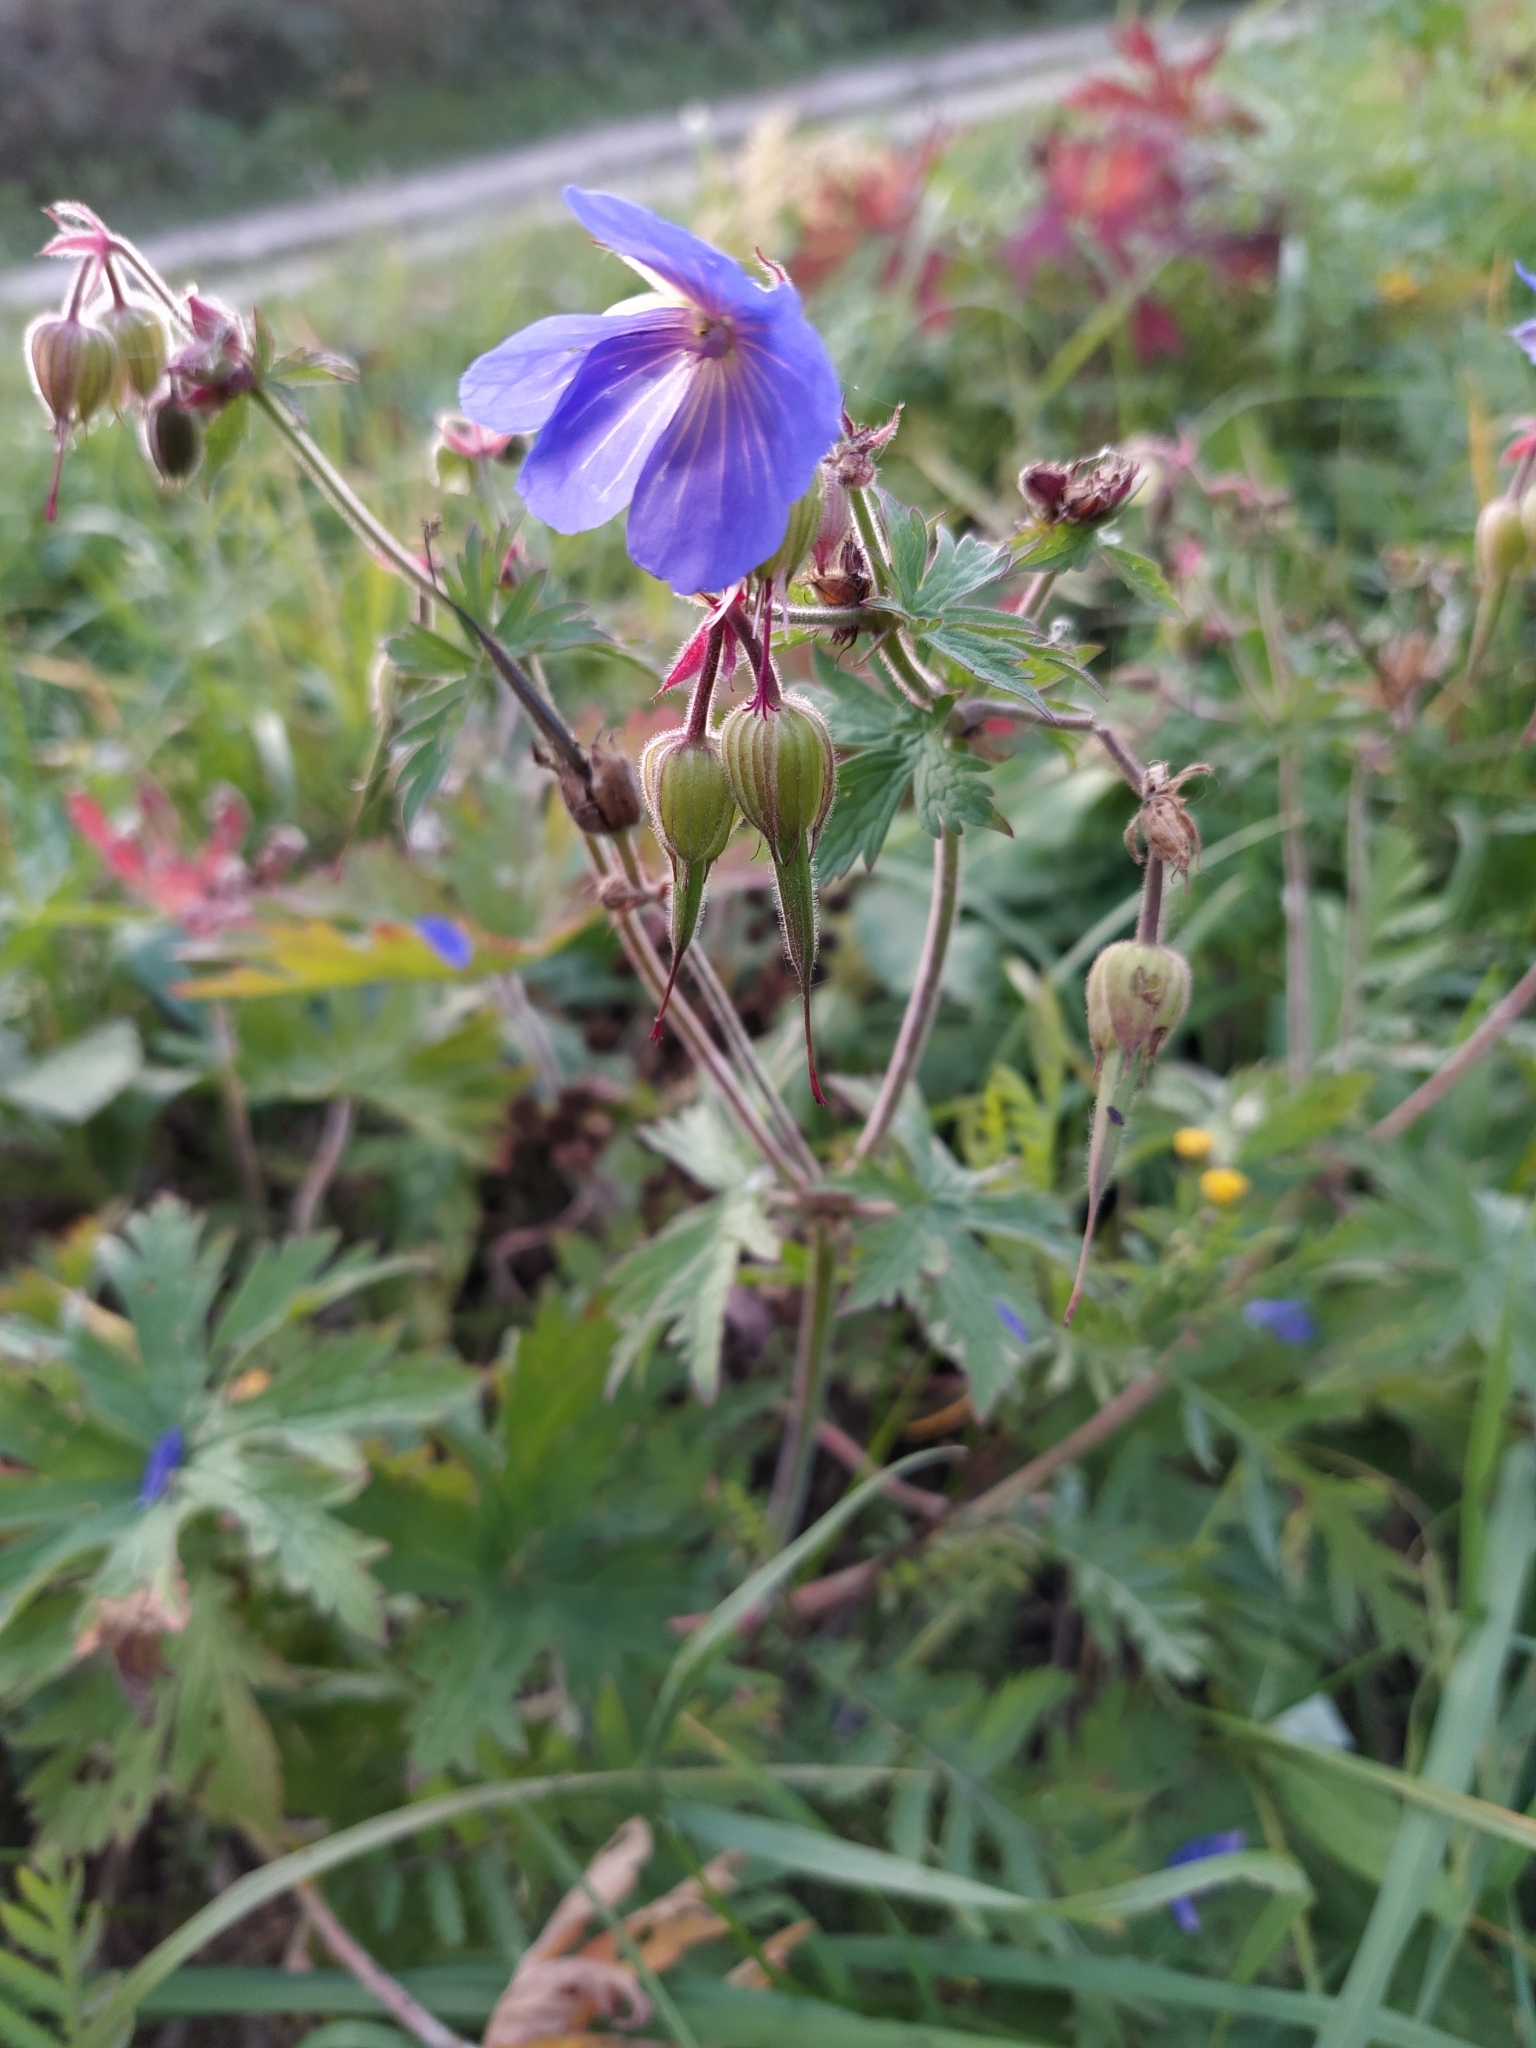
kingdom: Plantae
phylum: Tracheophyta
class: Magnoliopsida
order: Geraniales
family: Geraniaceae
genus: Geranium
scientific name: Geranium pratense
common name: Meadow crane's-bill
